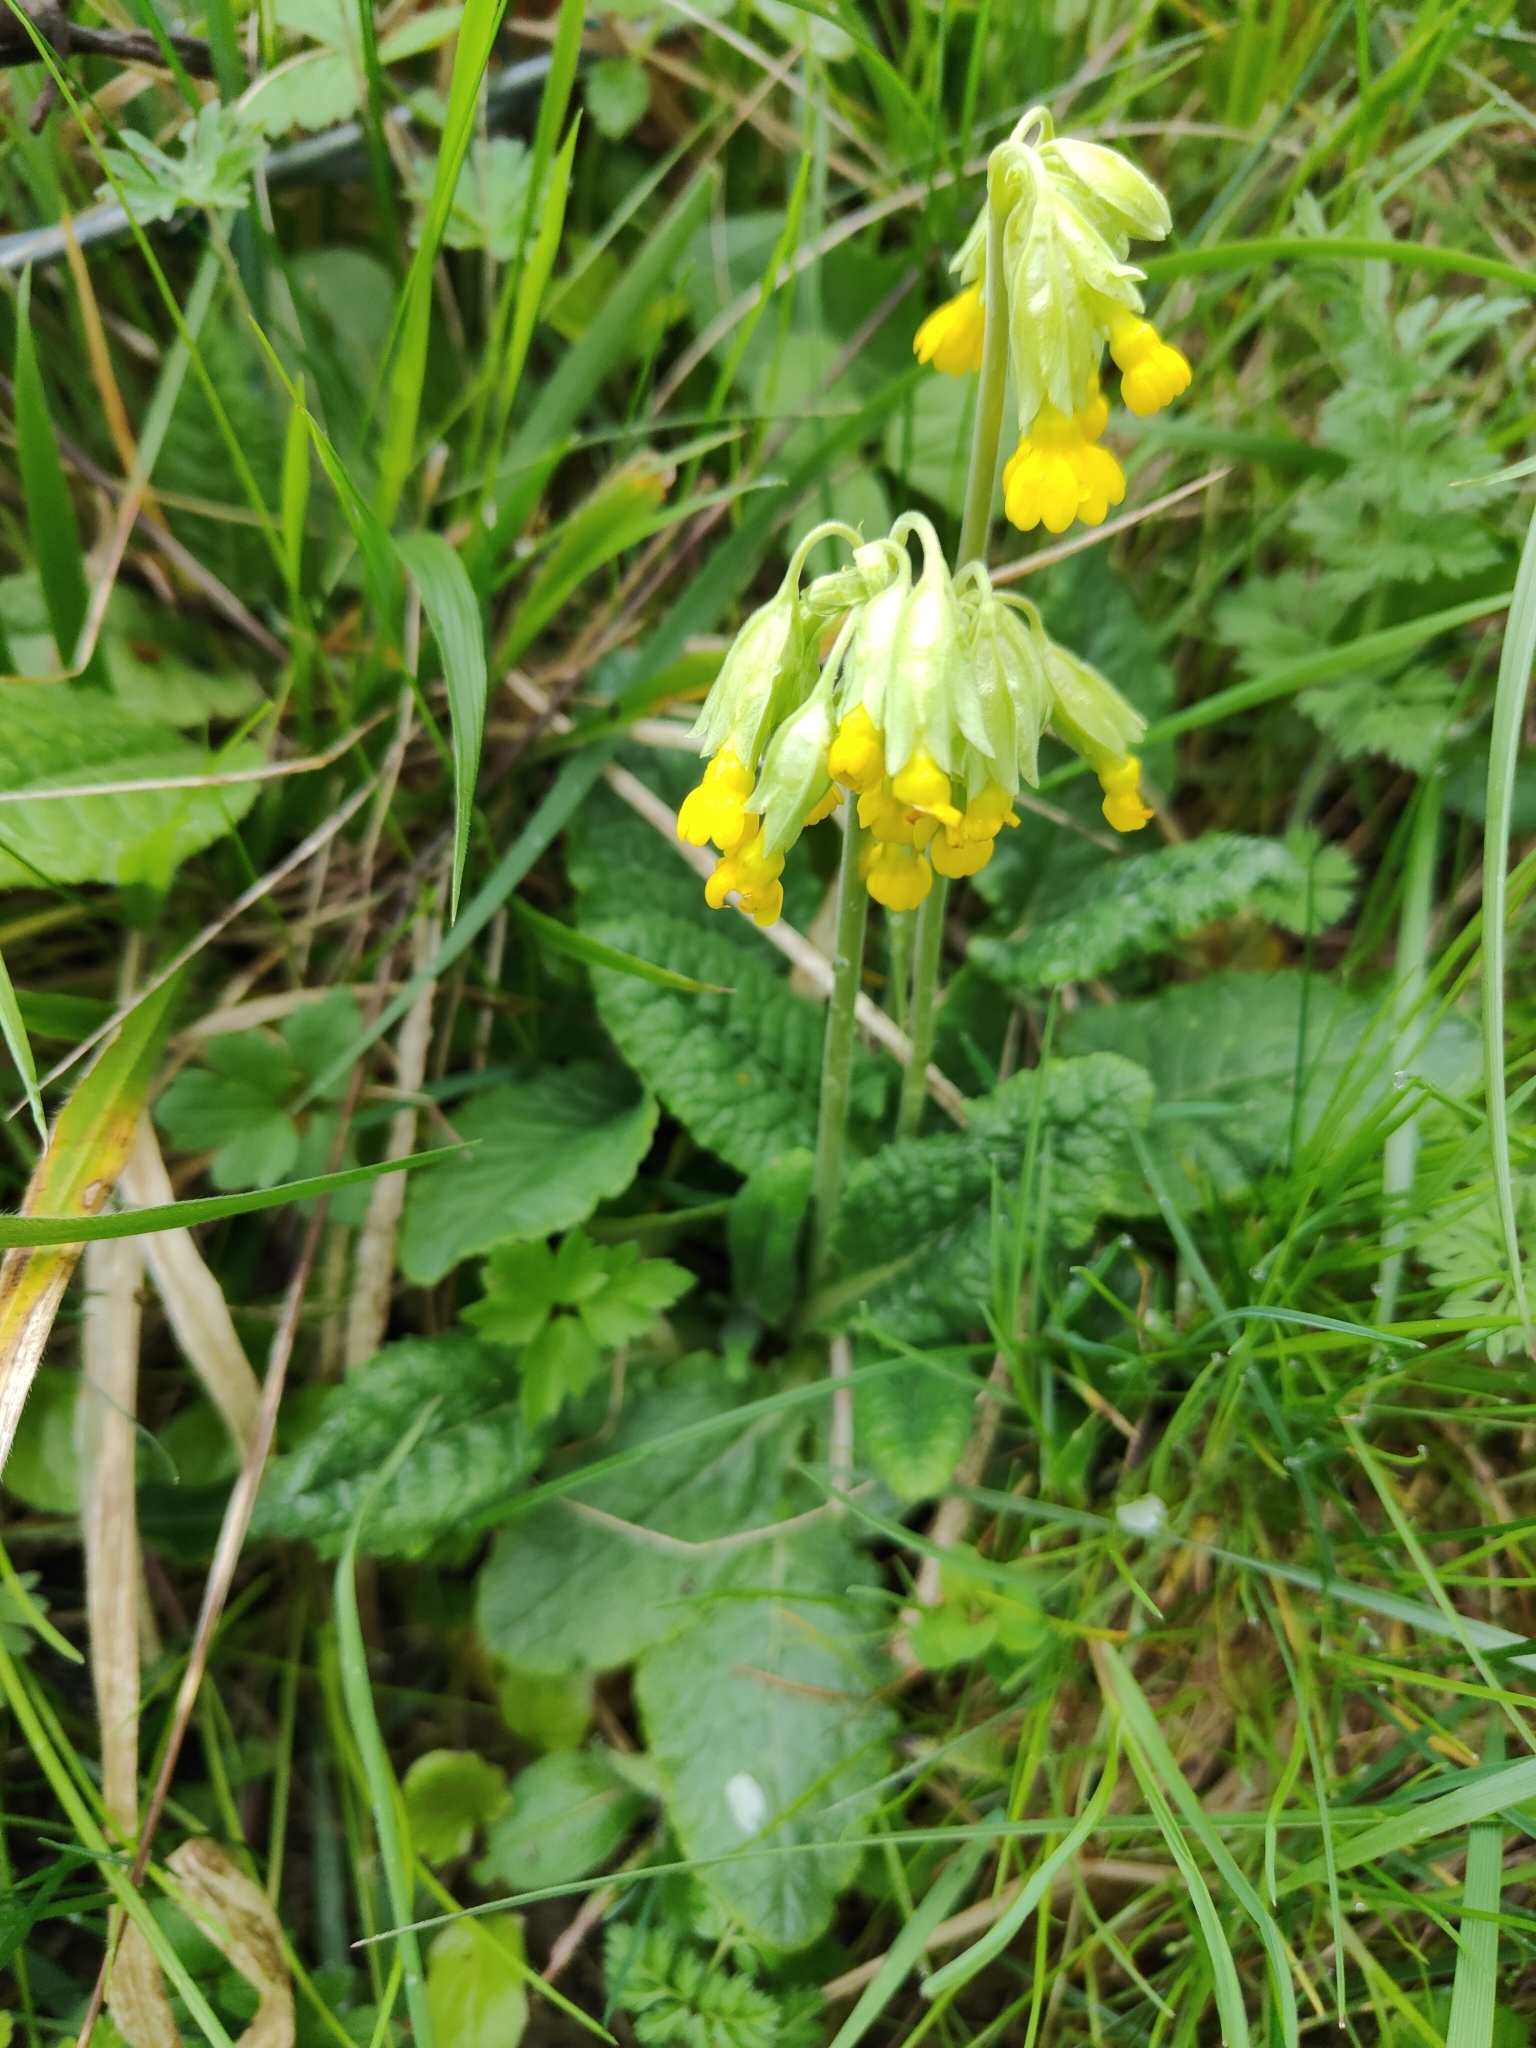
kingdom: Plantae
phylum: Tracheophyta
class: Magnoliopsida
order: Ericales
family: Primulaceae
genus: Primula
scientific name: Primula veris
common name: Cowslip
